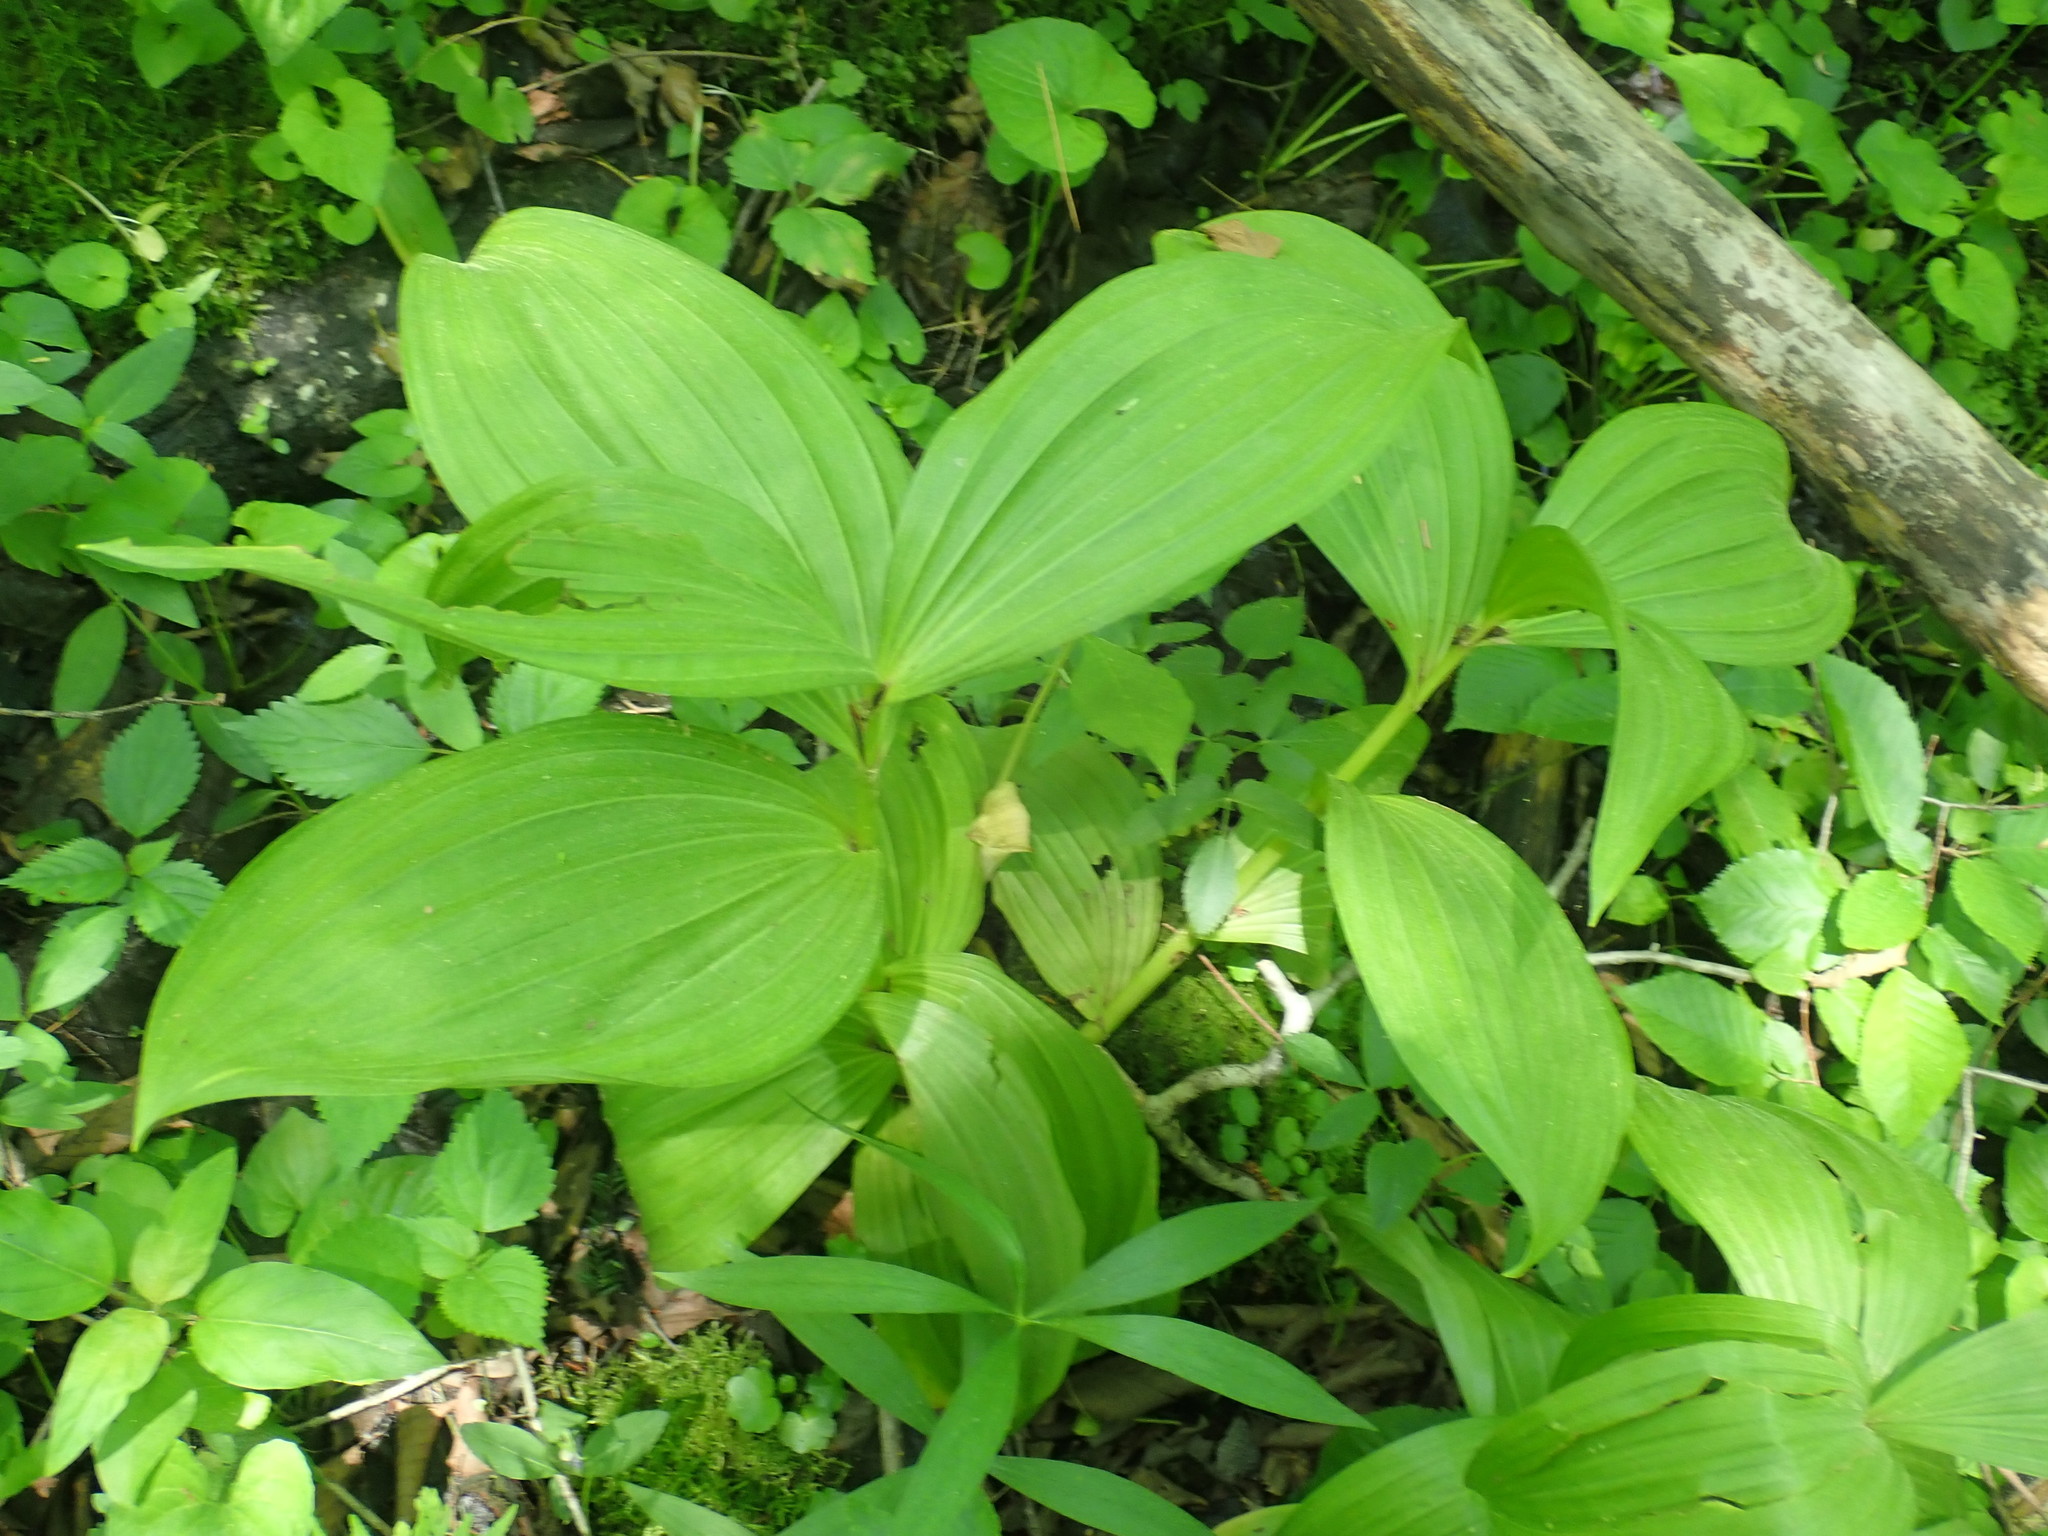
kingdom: Plantae
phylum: Tracheophyta
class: Liliopsida
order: Liliales
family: Melanthiaceae
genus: Veratrum
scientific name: Veratrum viride
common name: American false hellebore
